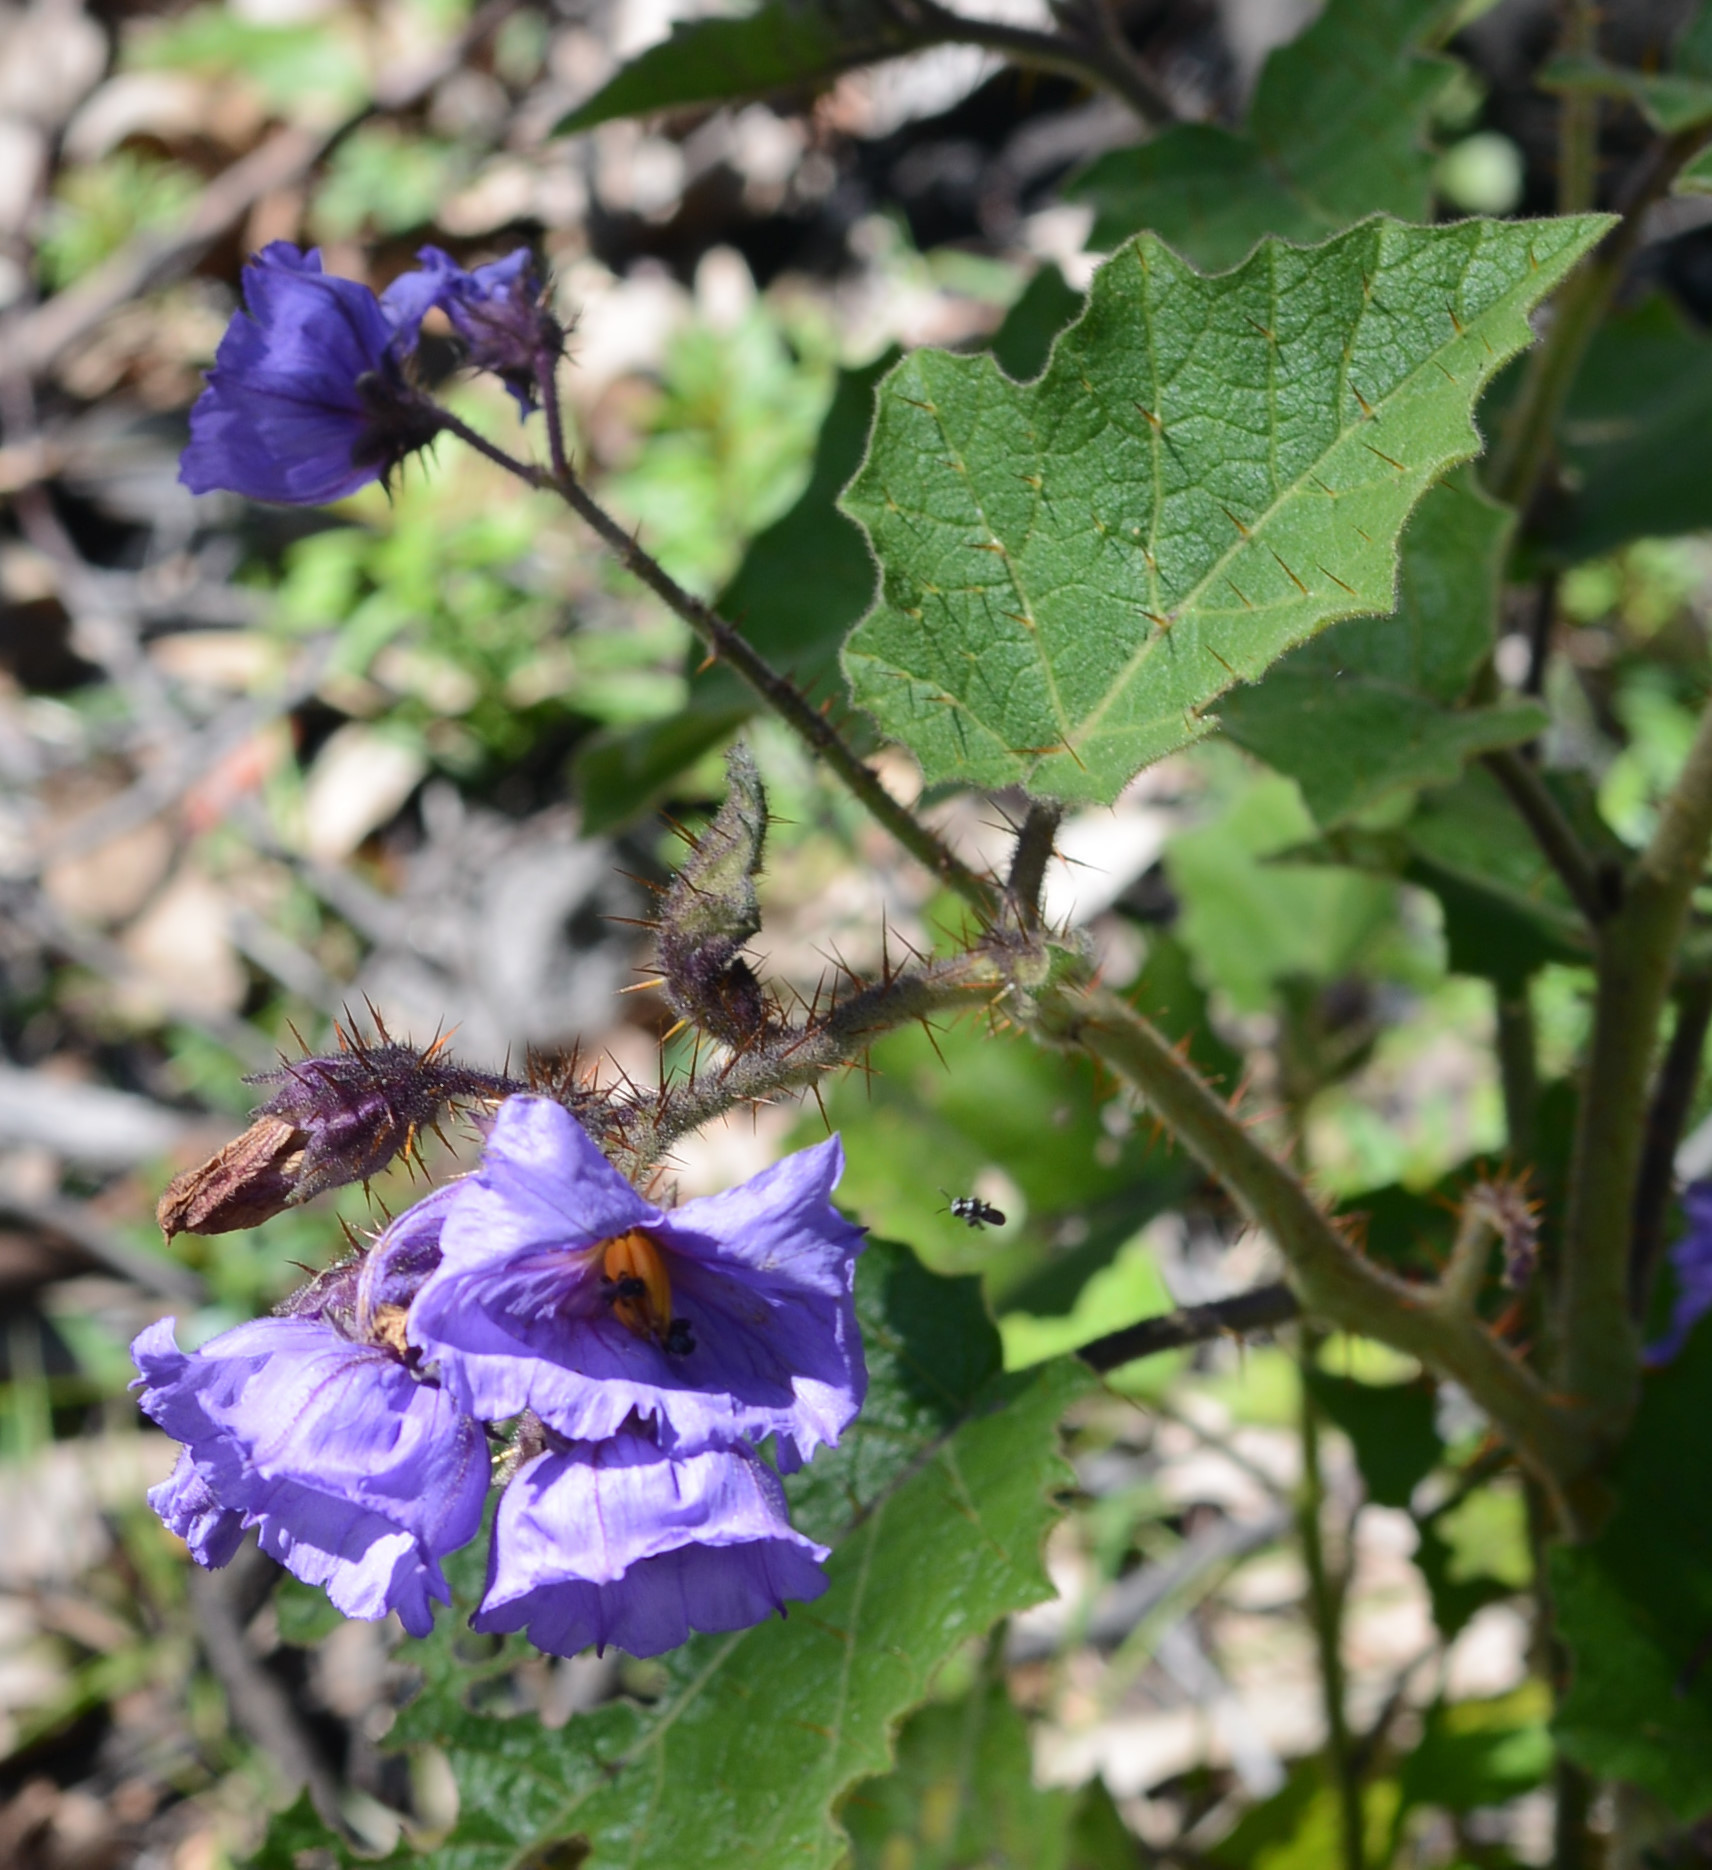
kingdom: Plantae
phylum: Tracheophyta
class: Magnoliopsida
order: Solanales
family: Solanaceae
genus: Solanum
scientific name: Solanum campanulatum
